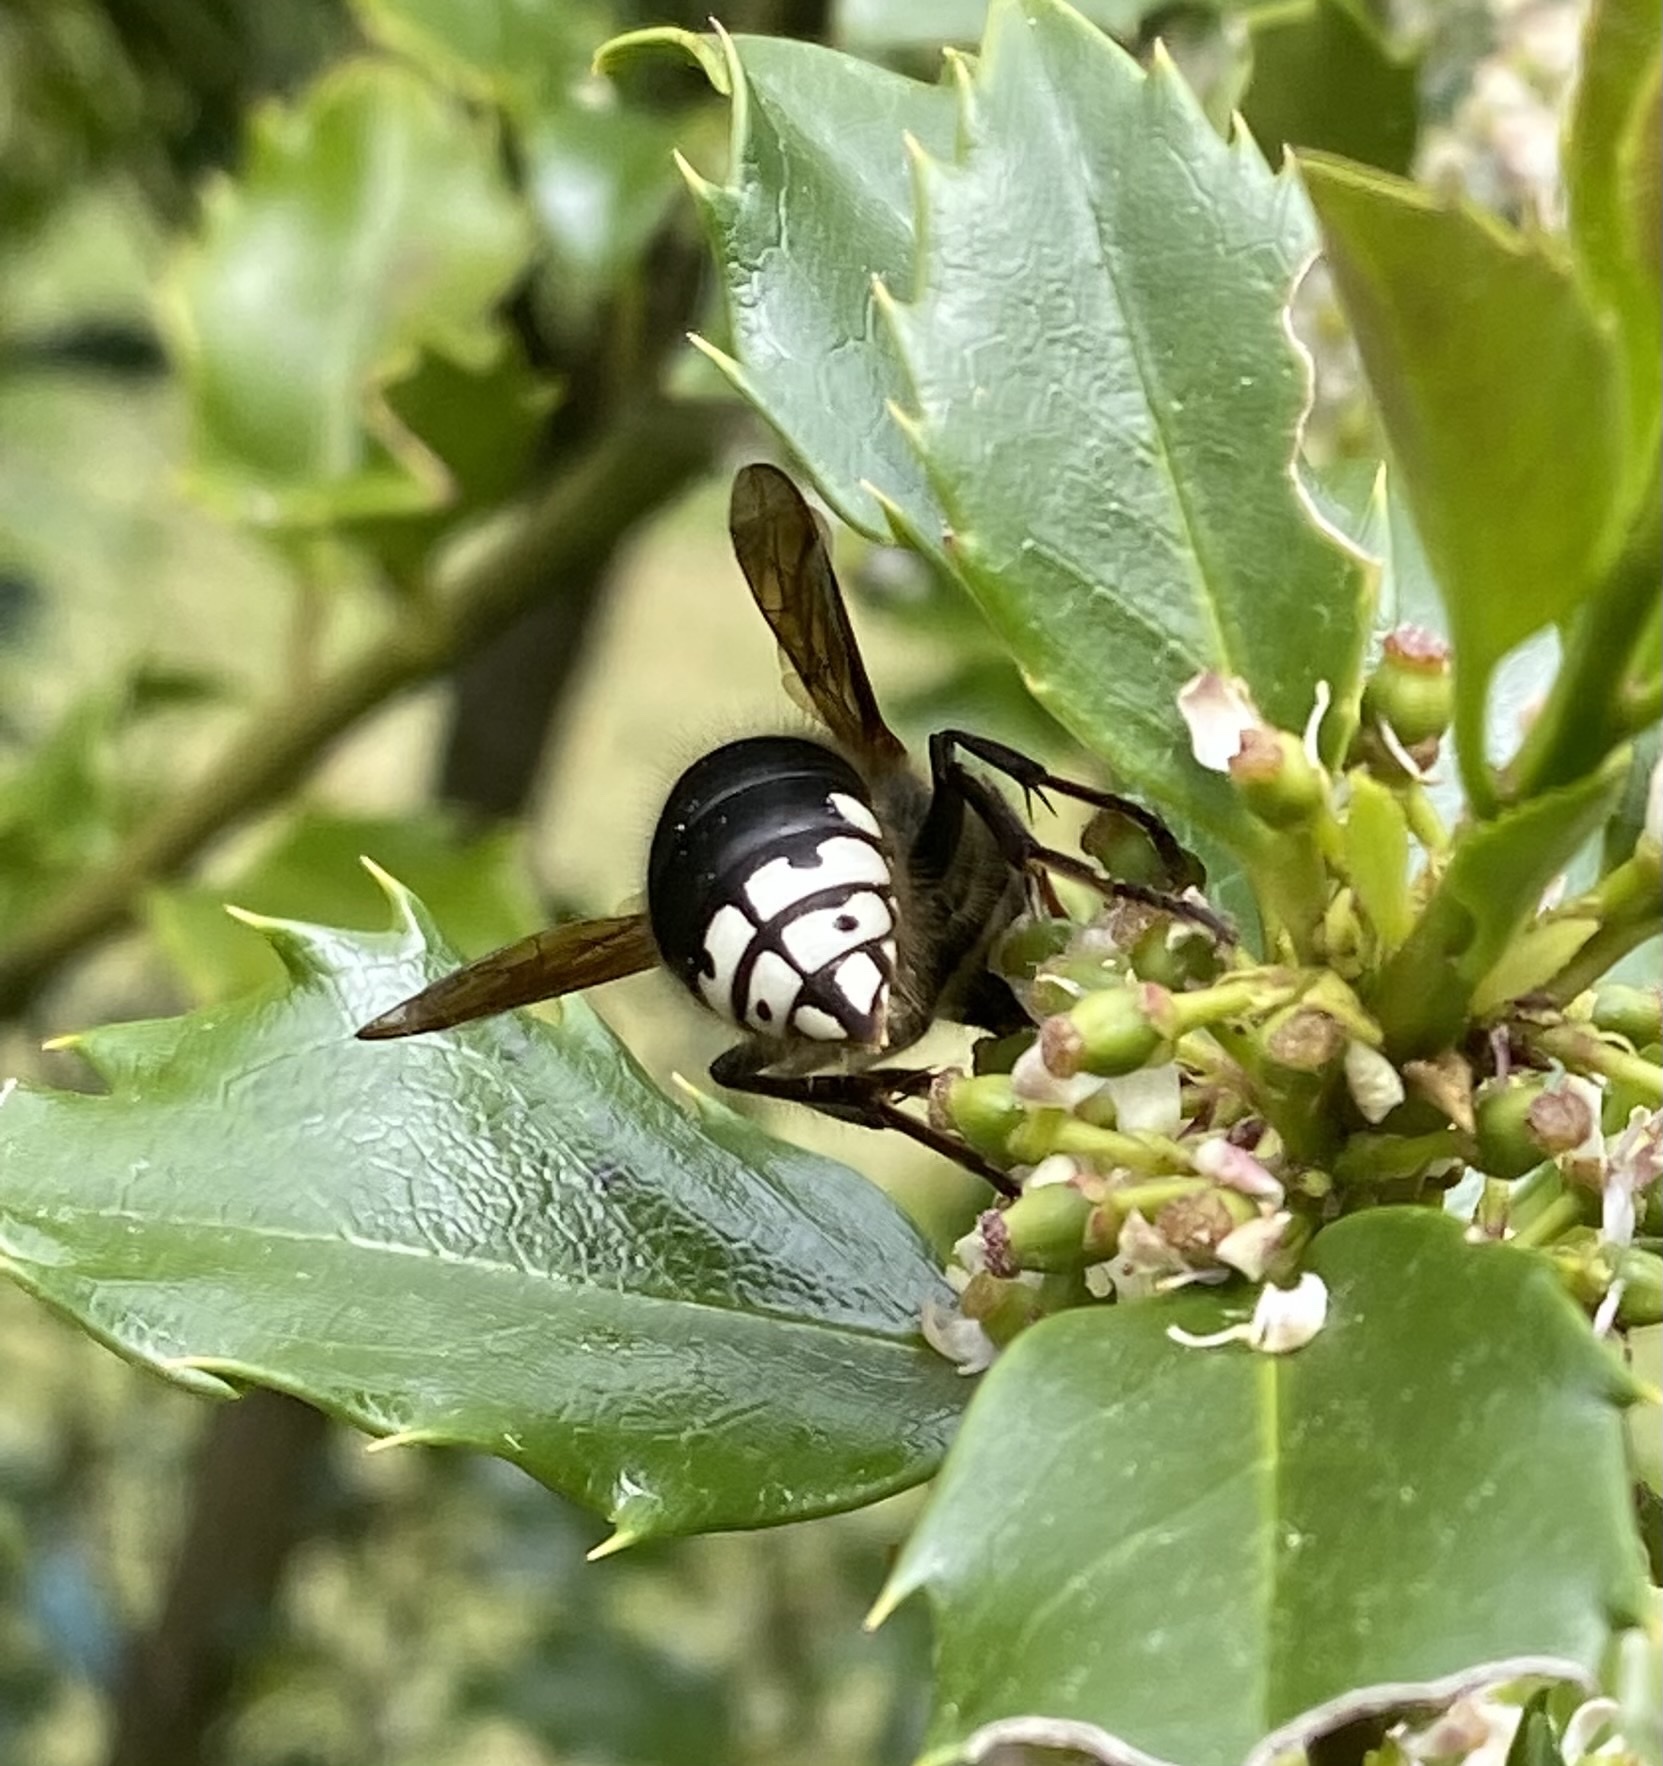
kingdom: Animalia
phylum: Arthropoda
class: Insecta
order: Hymenoptera
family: Vespidae
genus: Dolichovespula
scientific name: Dolichovespula maculata
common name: Bald-faced hornet
